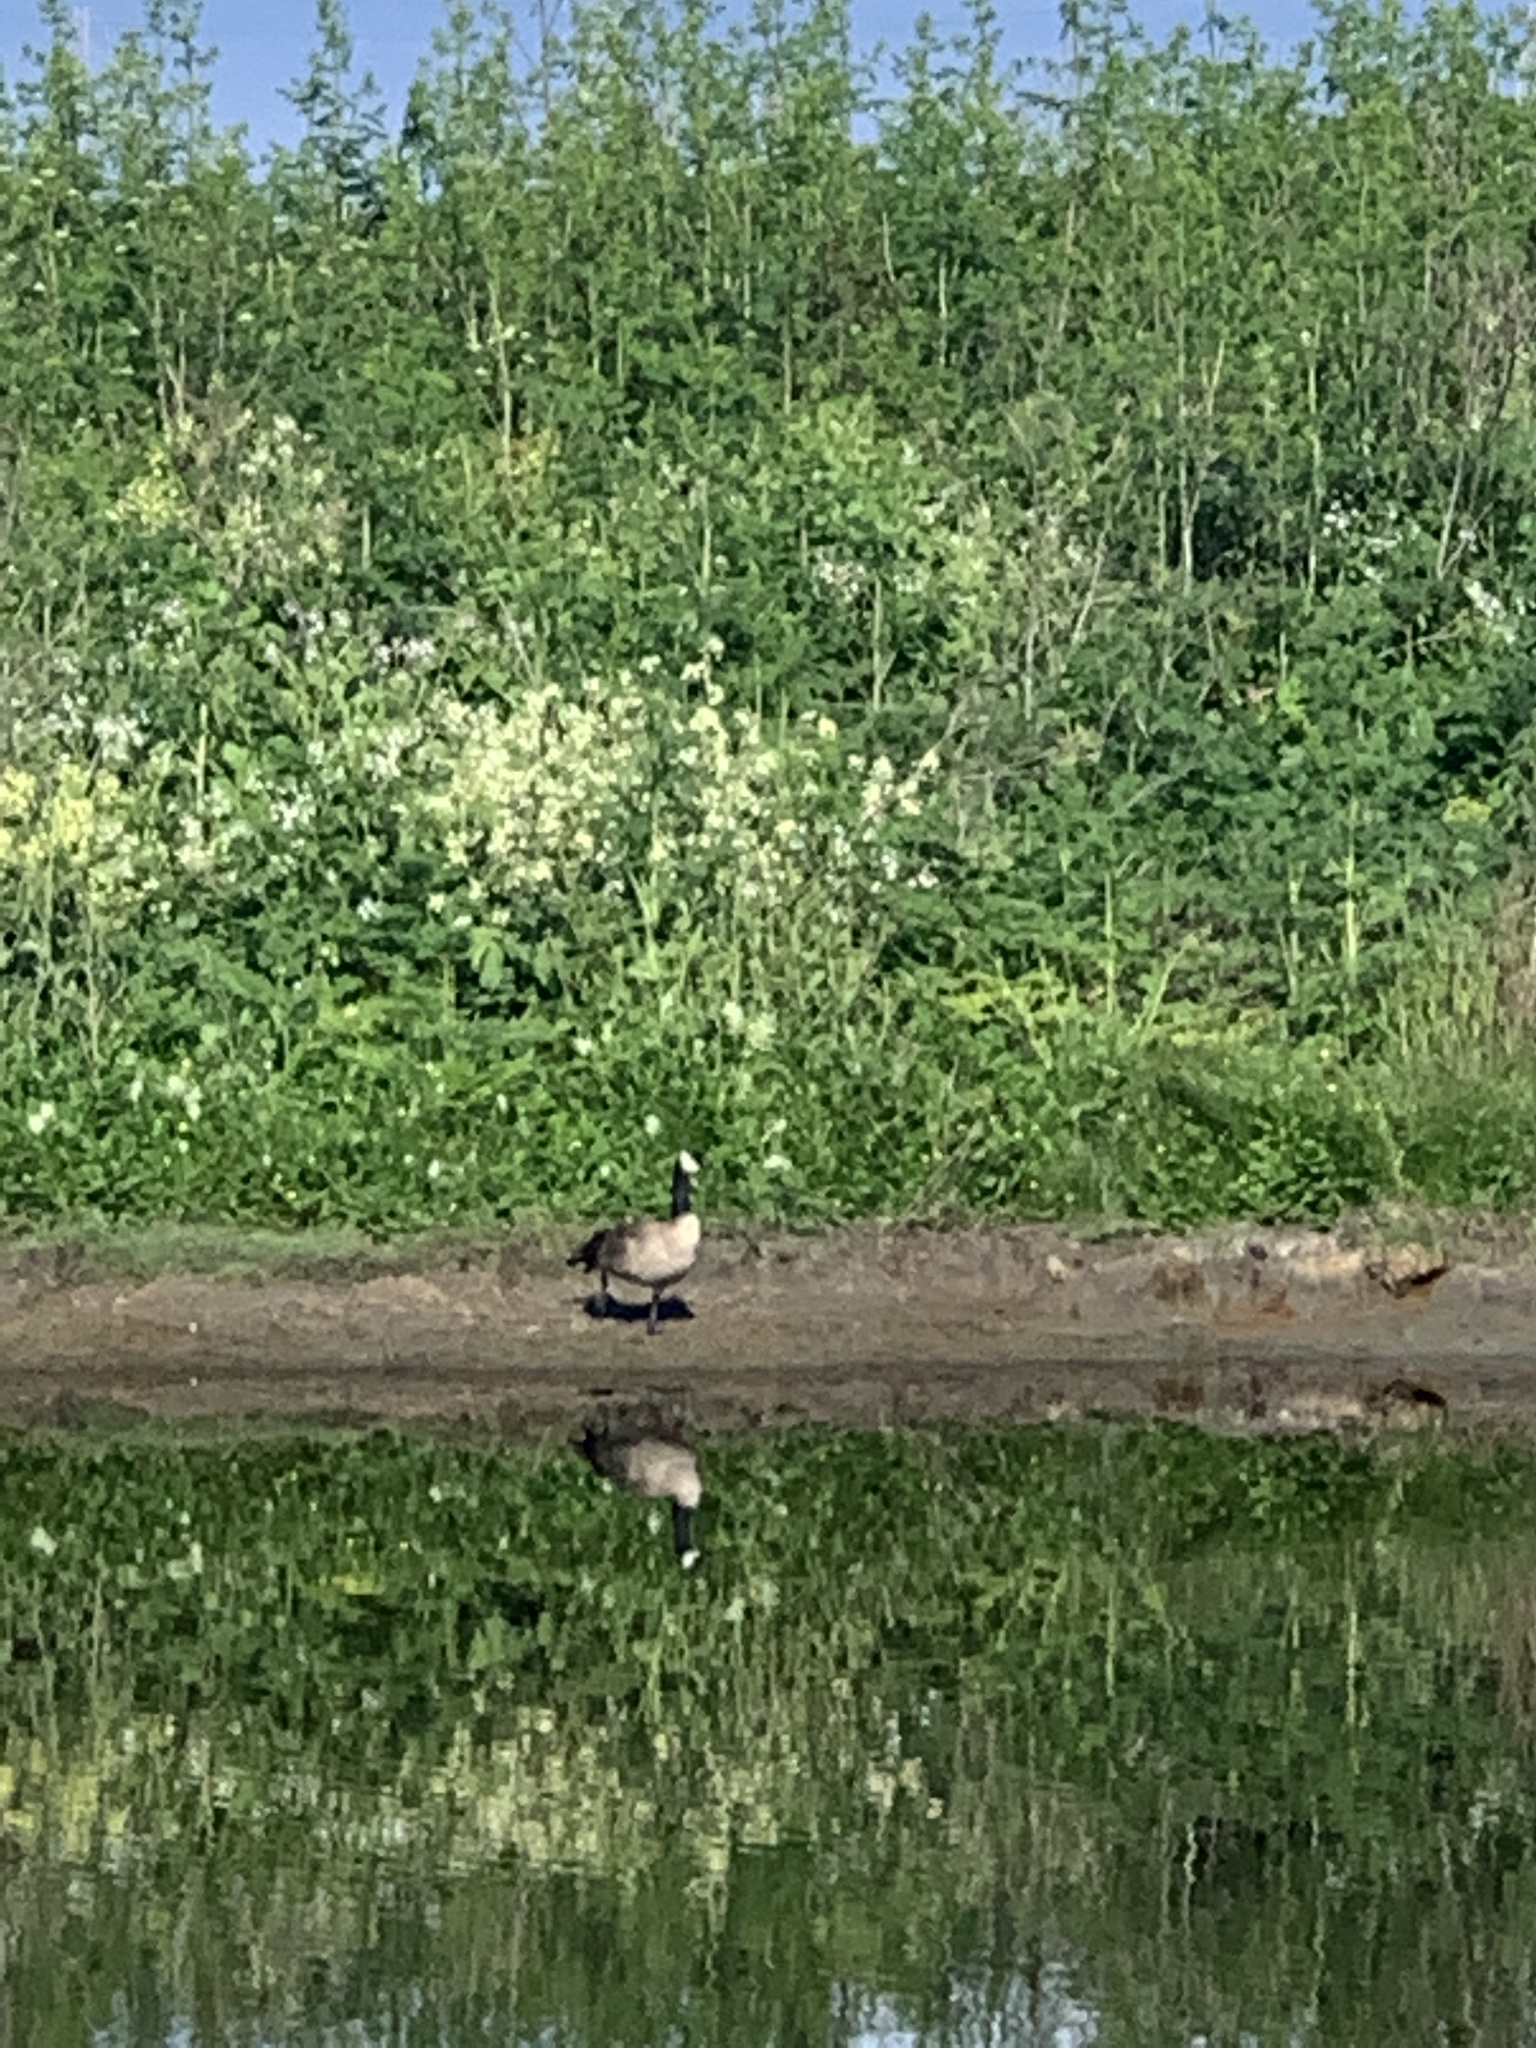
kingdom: Animalia
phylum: Chordata
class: Aves
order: Anseriformes
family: Anatidae
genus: Branta
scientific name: Branta canadensis
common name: Canada goose
